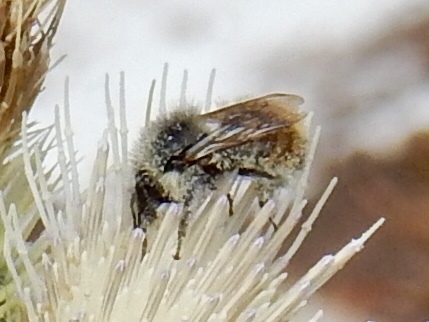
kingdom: Animalia
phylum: Arthropoda
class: Insecta
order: Hymenoptera
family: Apidae
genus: Pyrobombus
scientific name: Pyrobombus
